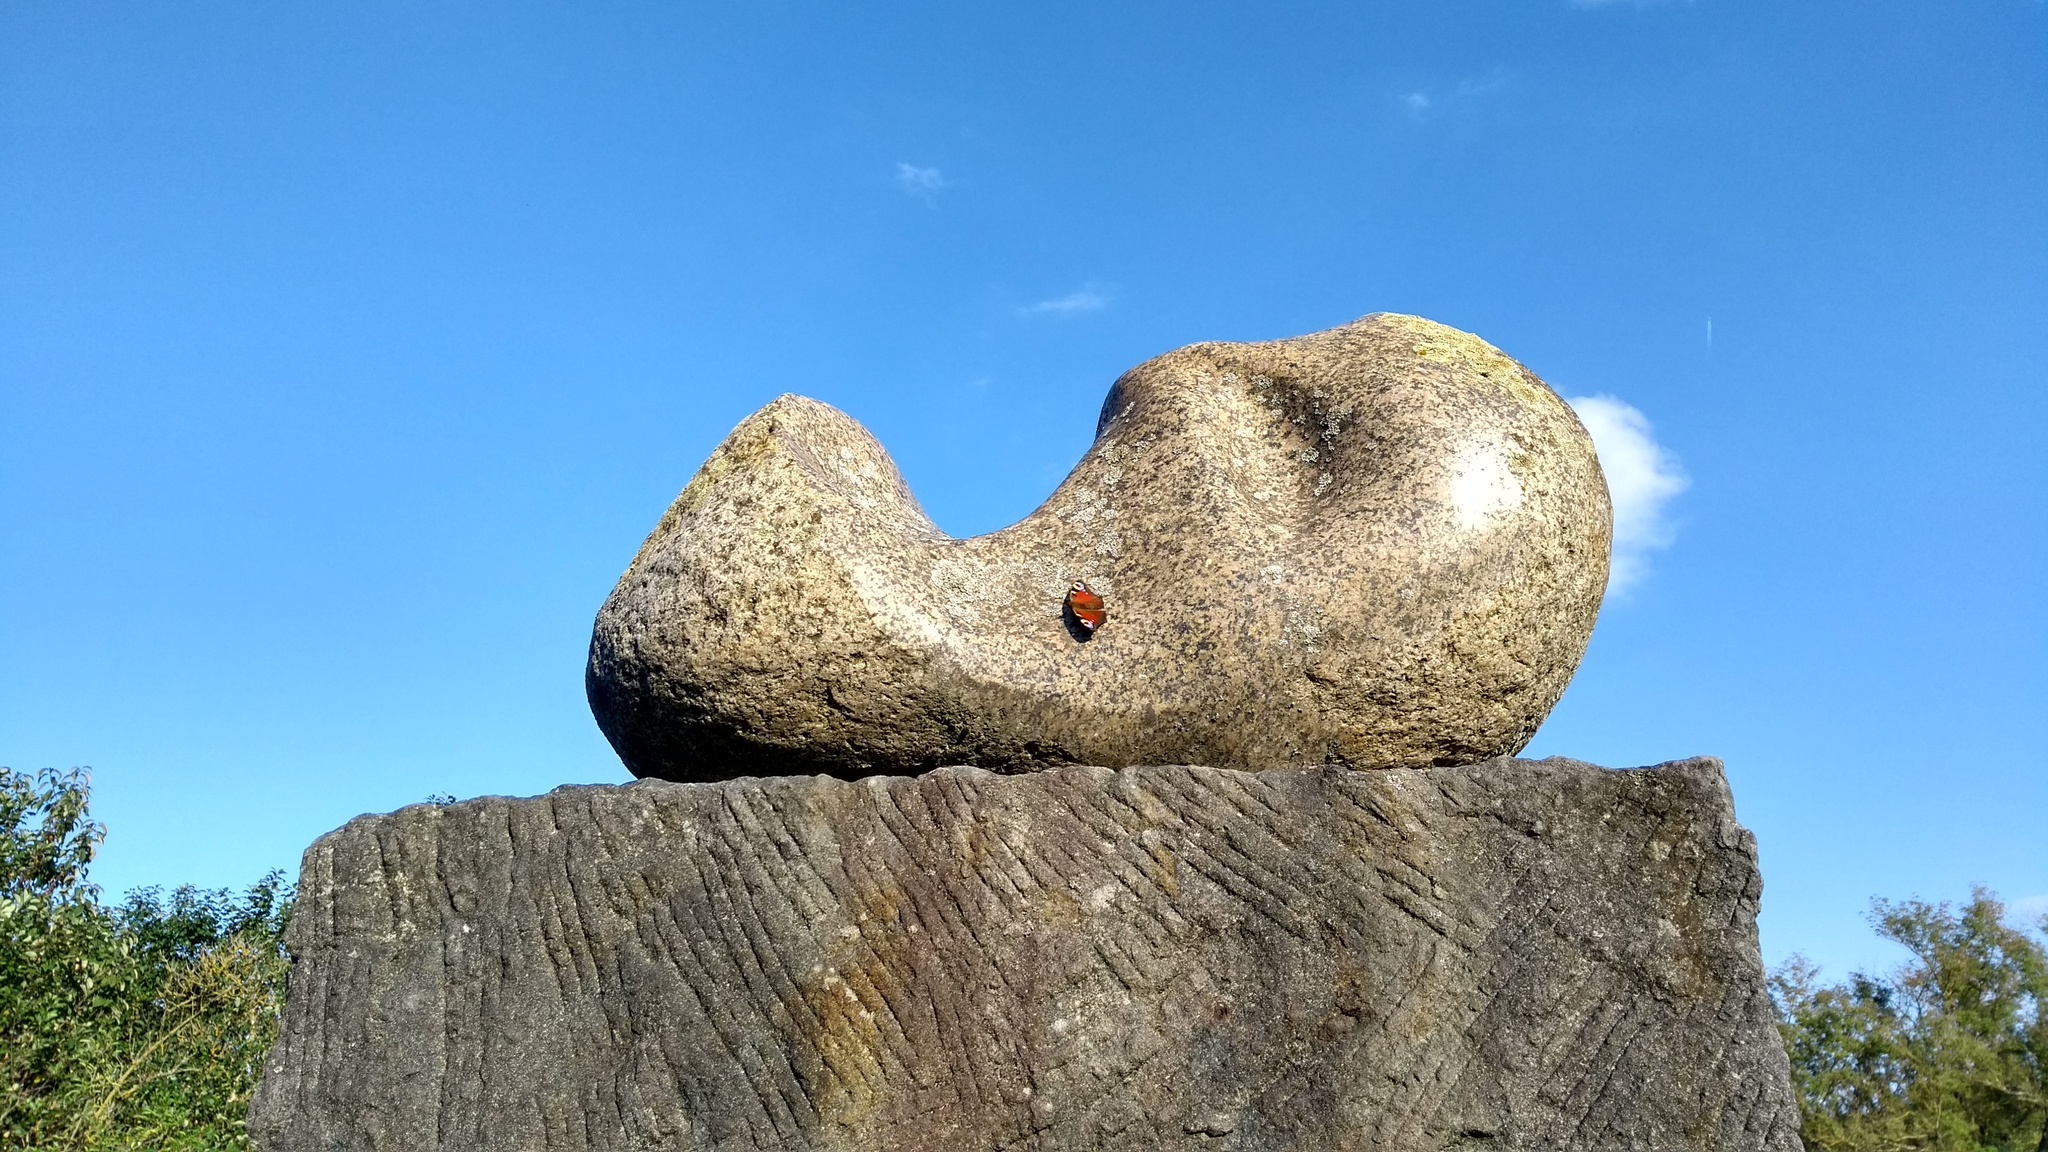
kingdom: Animalia
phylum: Arthropoda
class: Insecta
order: Lepidoptera
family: Nymphalidae
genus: Aglais
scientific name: Aglais io
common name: Peacock
